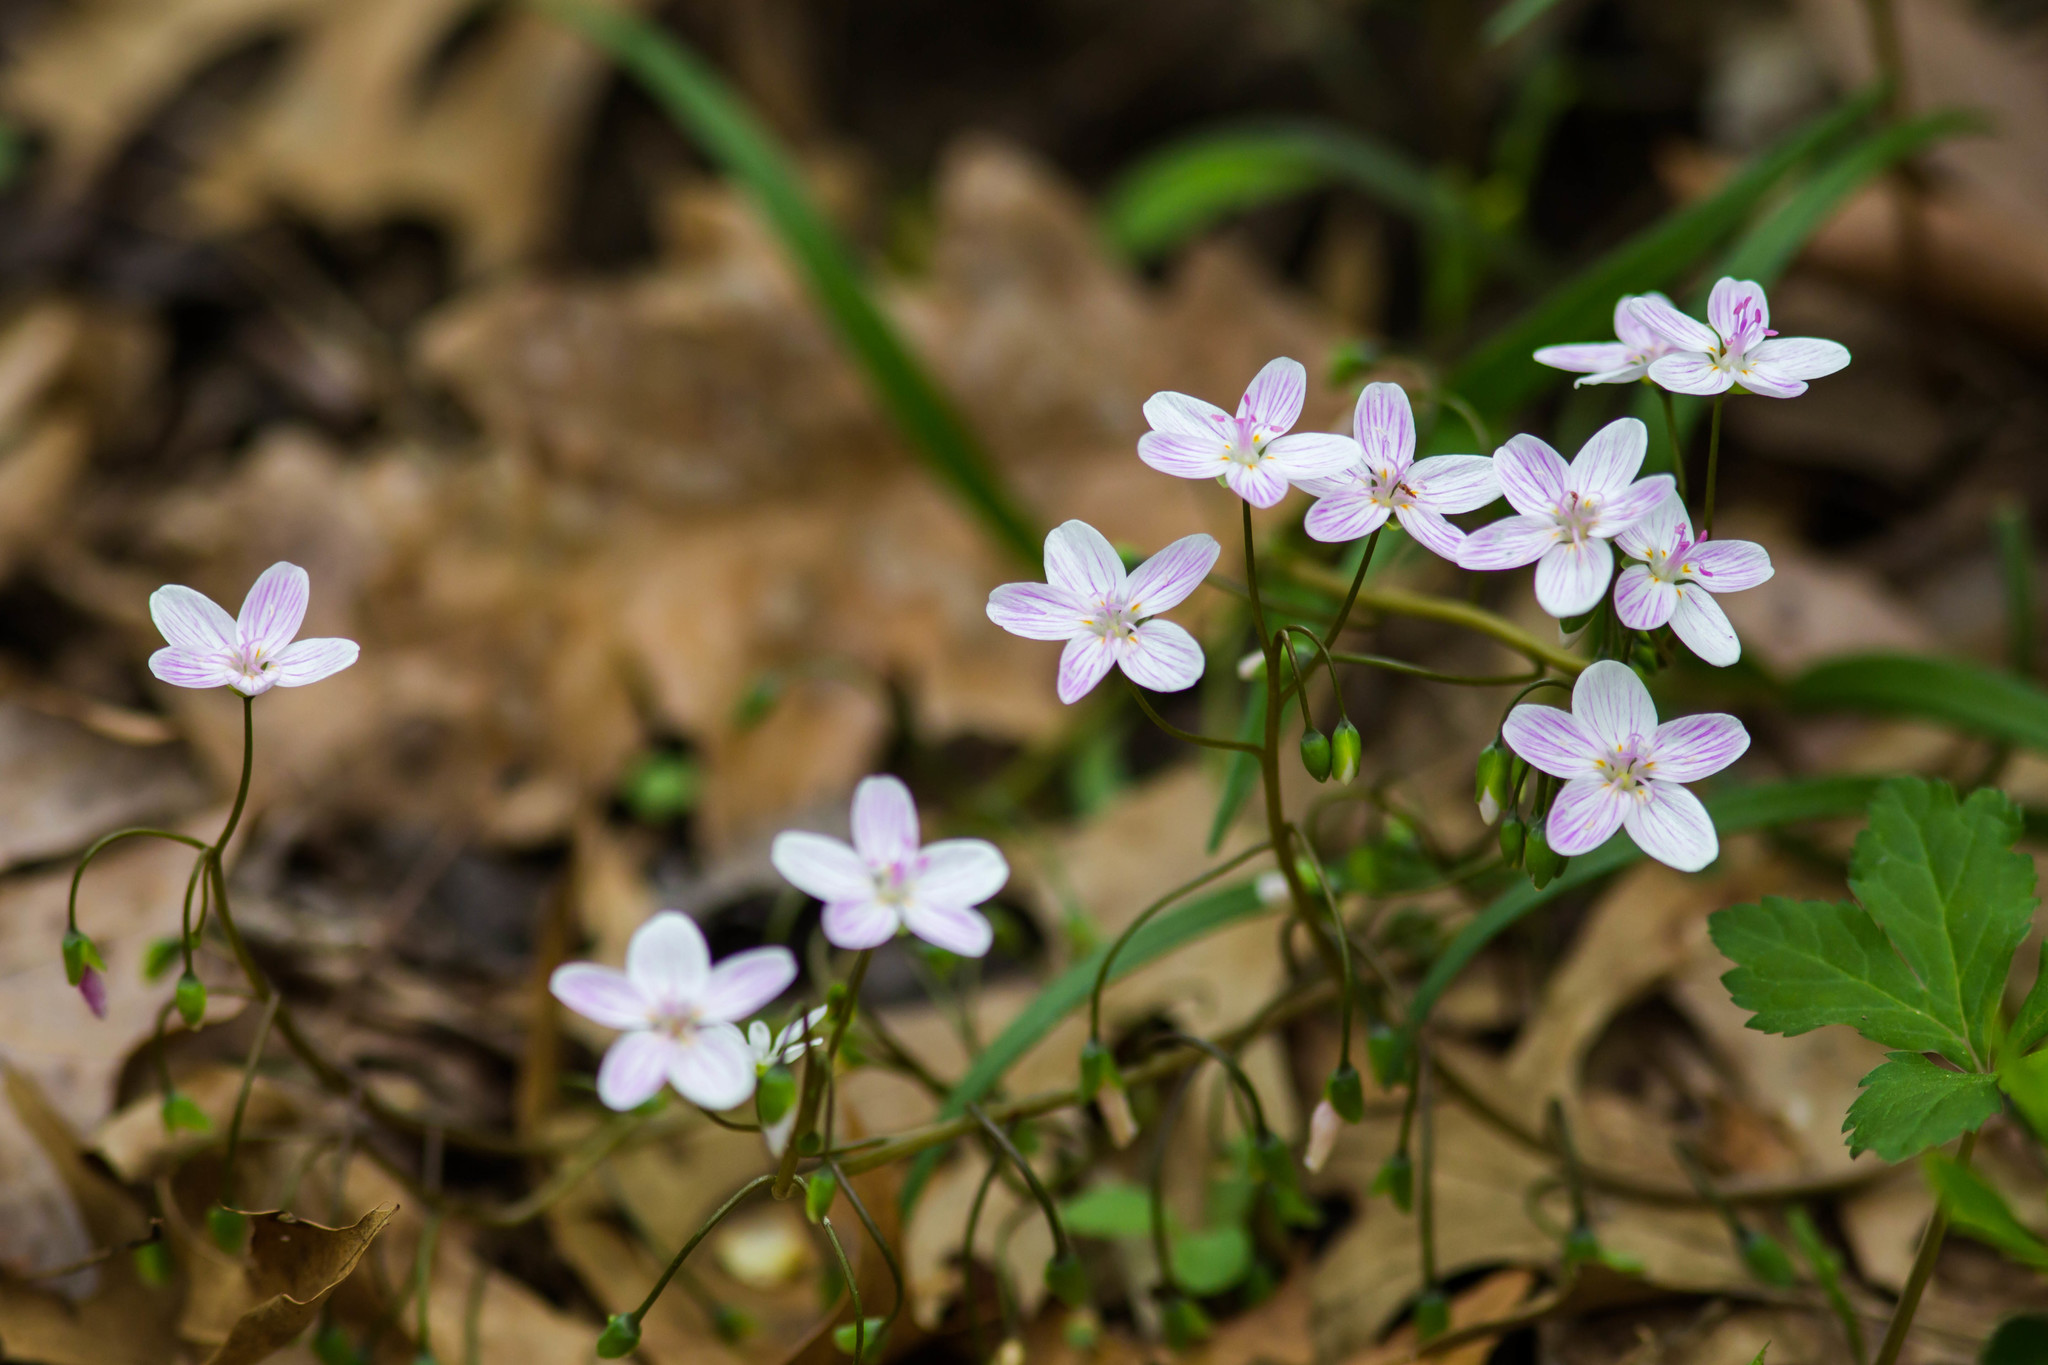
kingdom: Plantae
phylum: Tracheophyta
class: Magnoliopsida
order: Caryophyllales
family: Montiaceae
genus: Claytonia
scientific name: Claytonia virginica
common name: Virginia springbeauty
